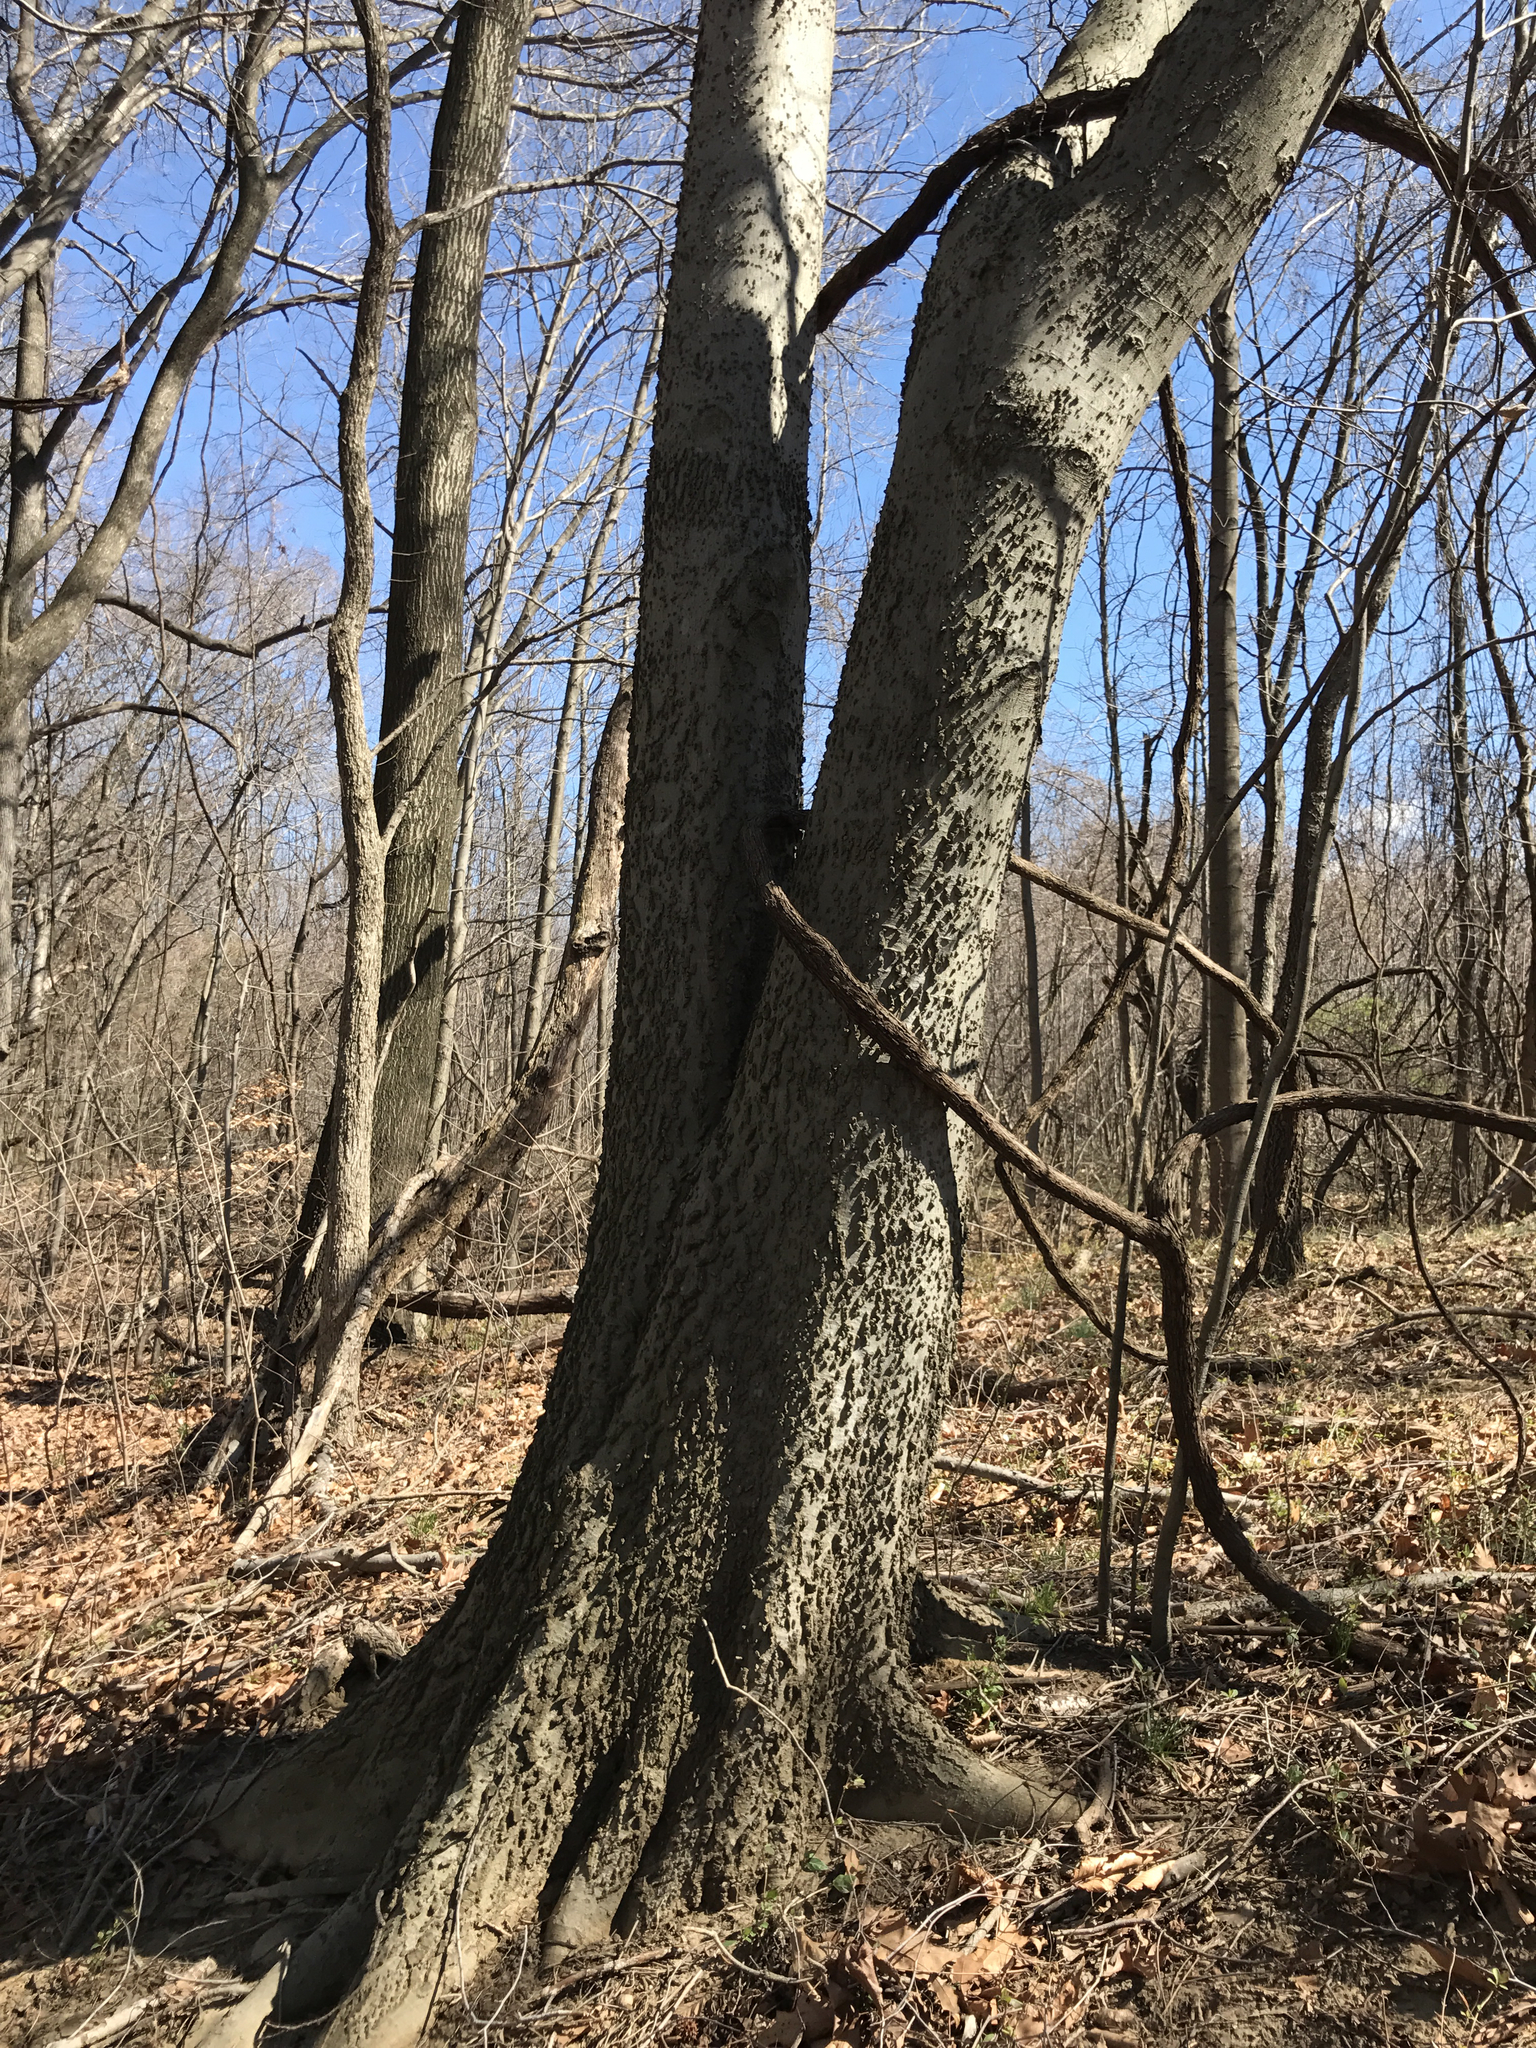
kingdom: Plantae
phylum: Tracheophyta
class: Magnoliopsida
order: Rosales
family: Cannabaceae
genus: Celtis
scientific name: Celtis occidentalis
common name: Common hackberry
